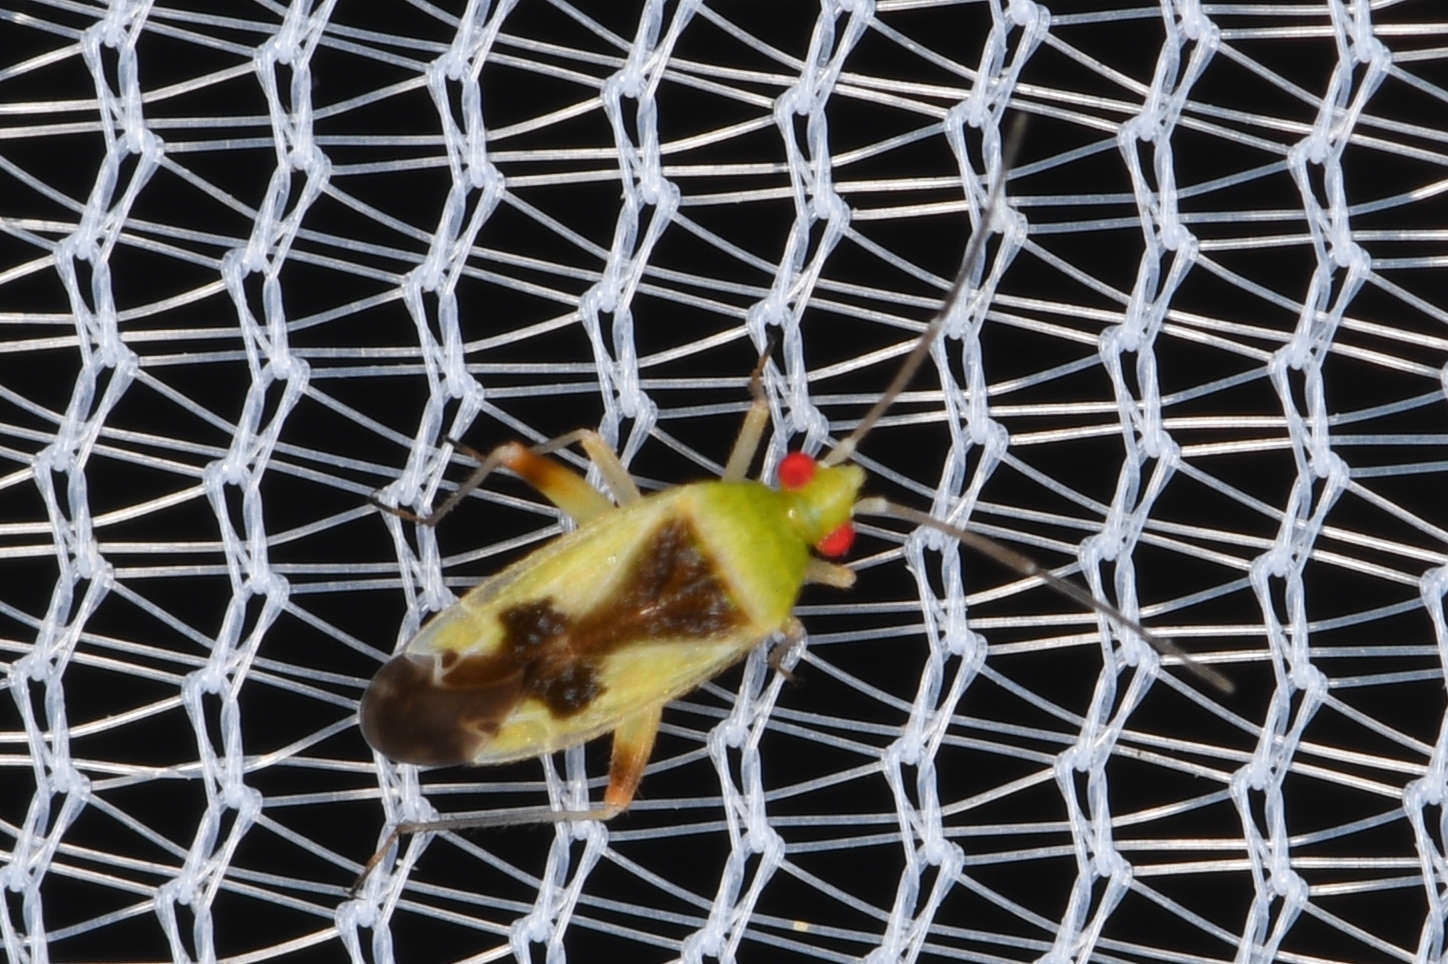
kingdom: Animalia
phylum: Arthropoda
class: Insecta
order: Hemiptera
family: Miridae
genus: Reuteroscopus
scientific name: Reuteroscopus femoralis
